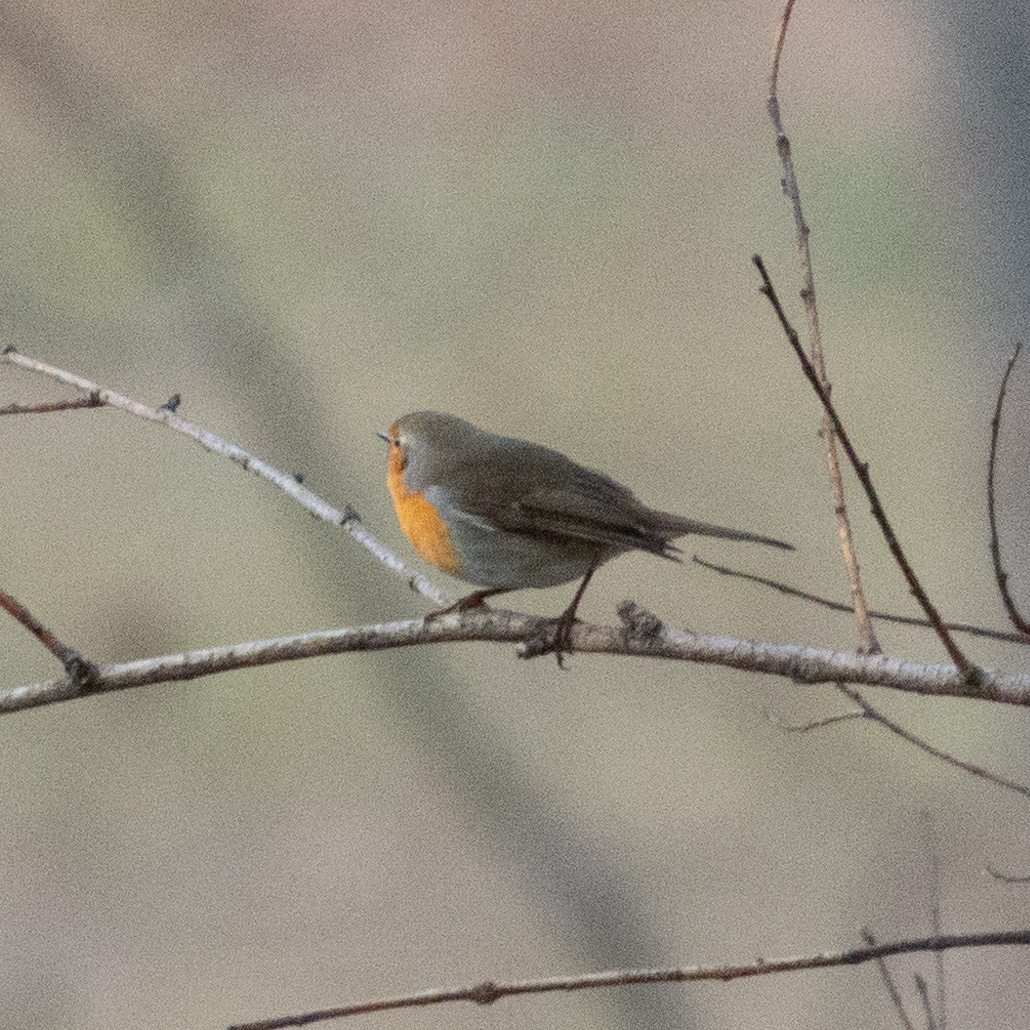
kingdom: Animalia
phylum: Chordata
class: Aves
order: Passeriformes
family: Muscicapidae
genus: Erithacus
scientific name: Erithacus rubecula
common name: European robin
